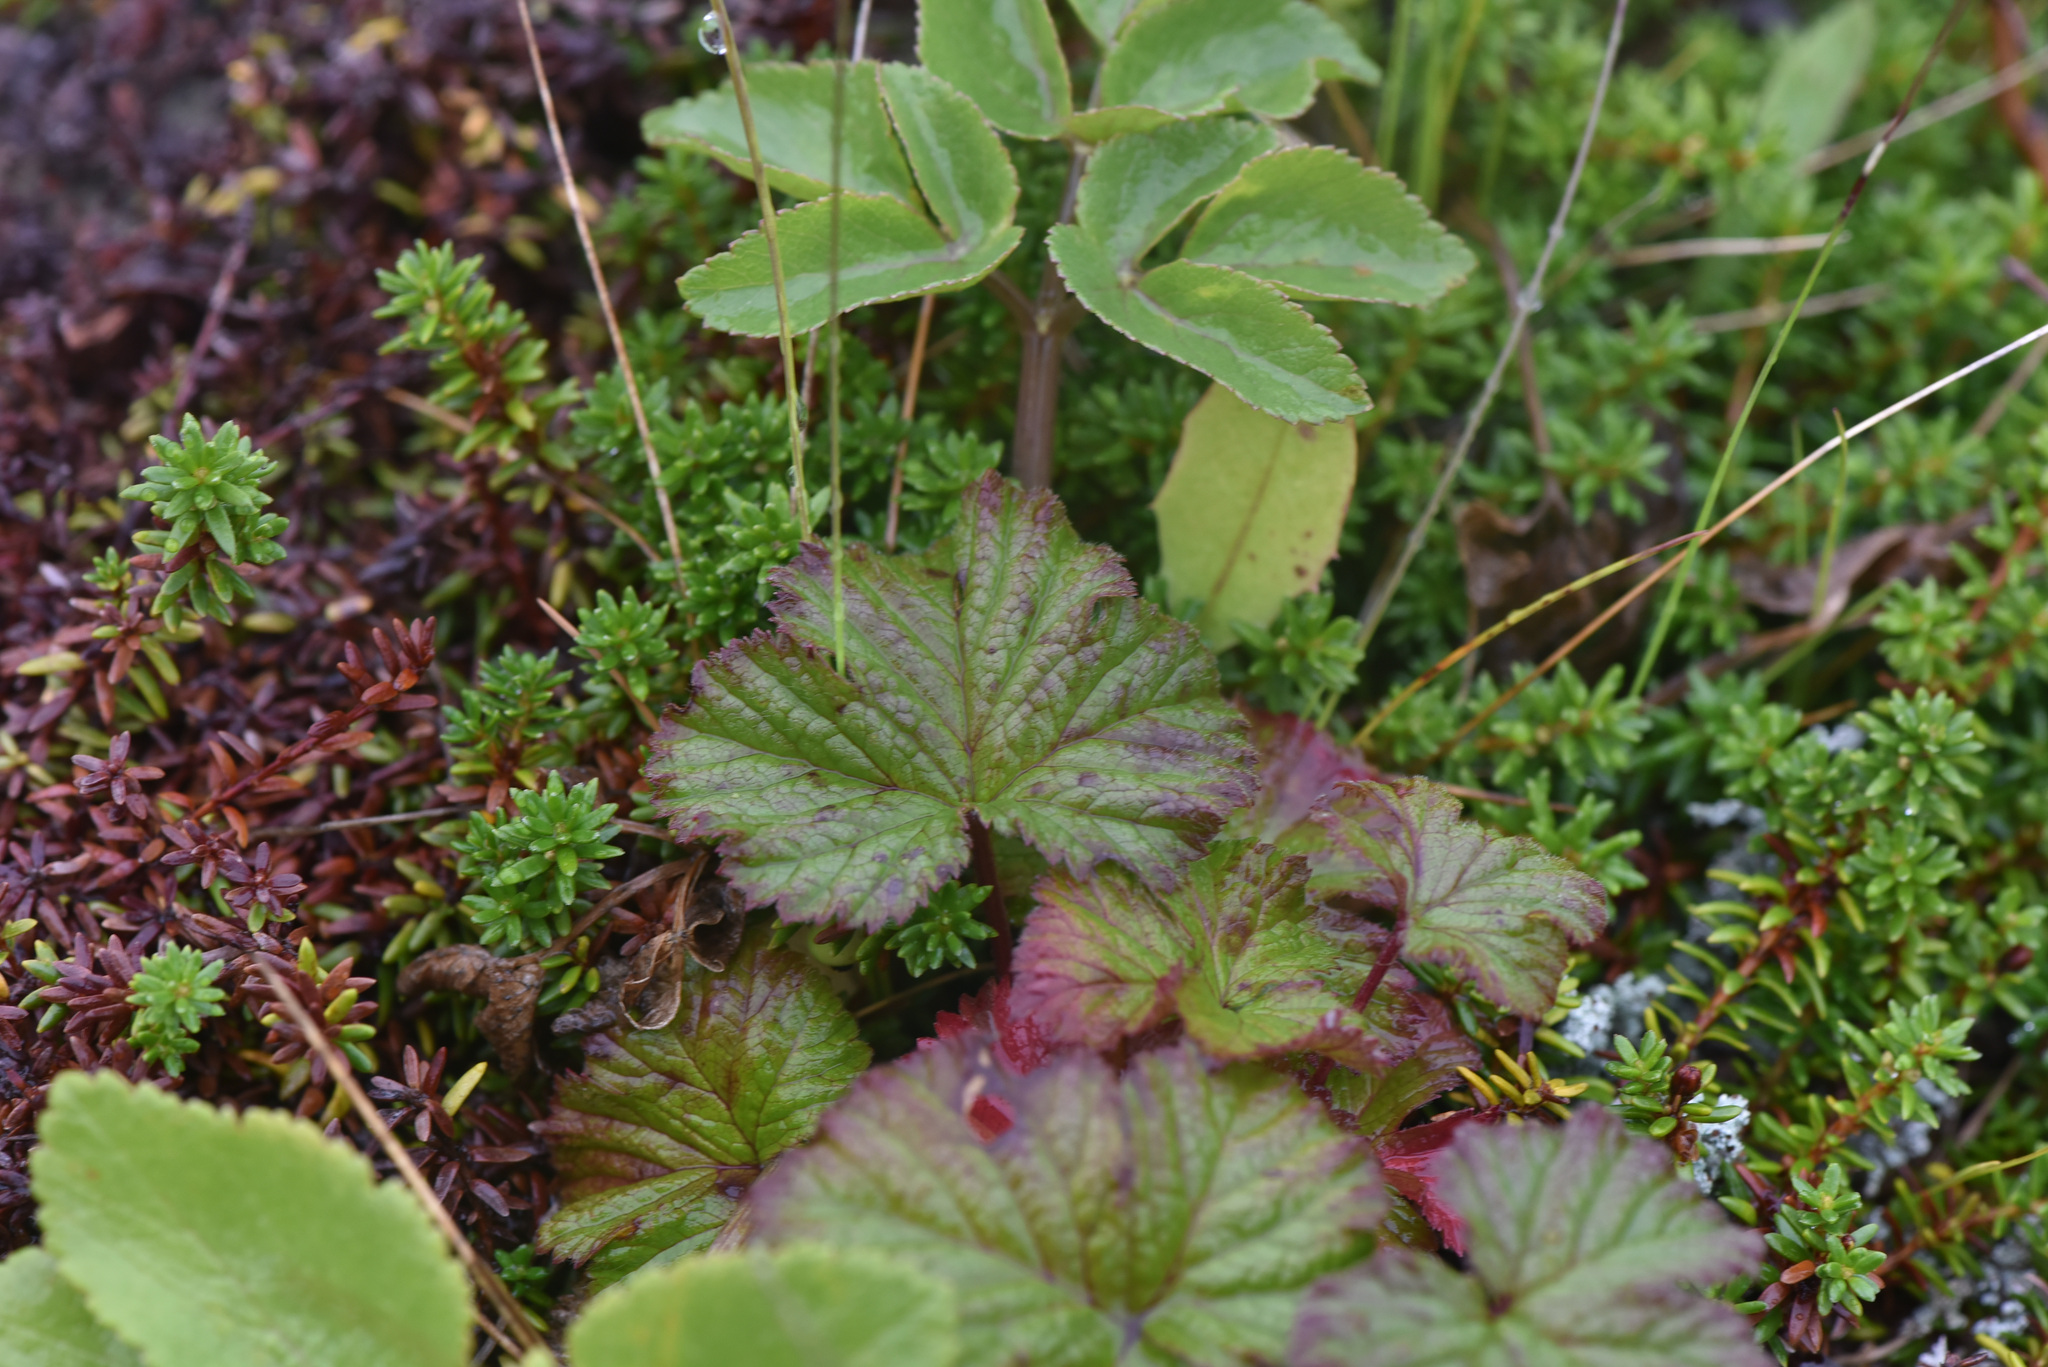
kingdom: Plantae
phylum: Tracheophyta
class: Magnoliopsida
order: Rosales
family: Rosaceae
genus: Rubus
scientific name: Rubus arcticus
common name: Arctic bramble
